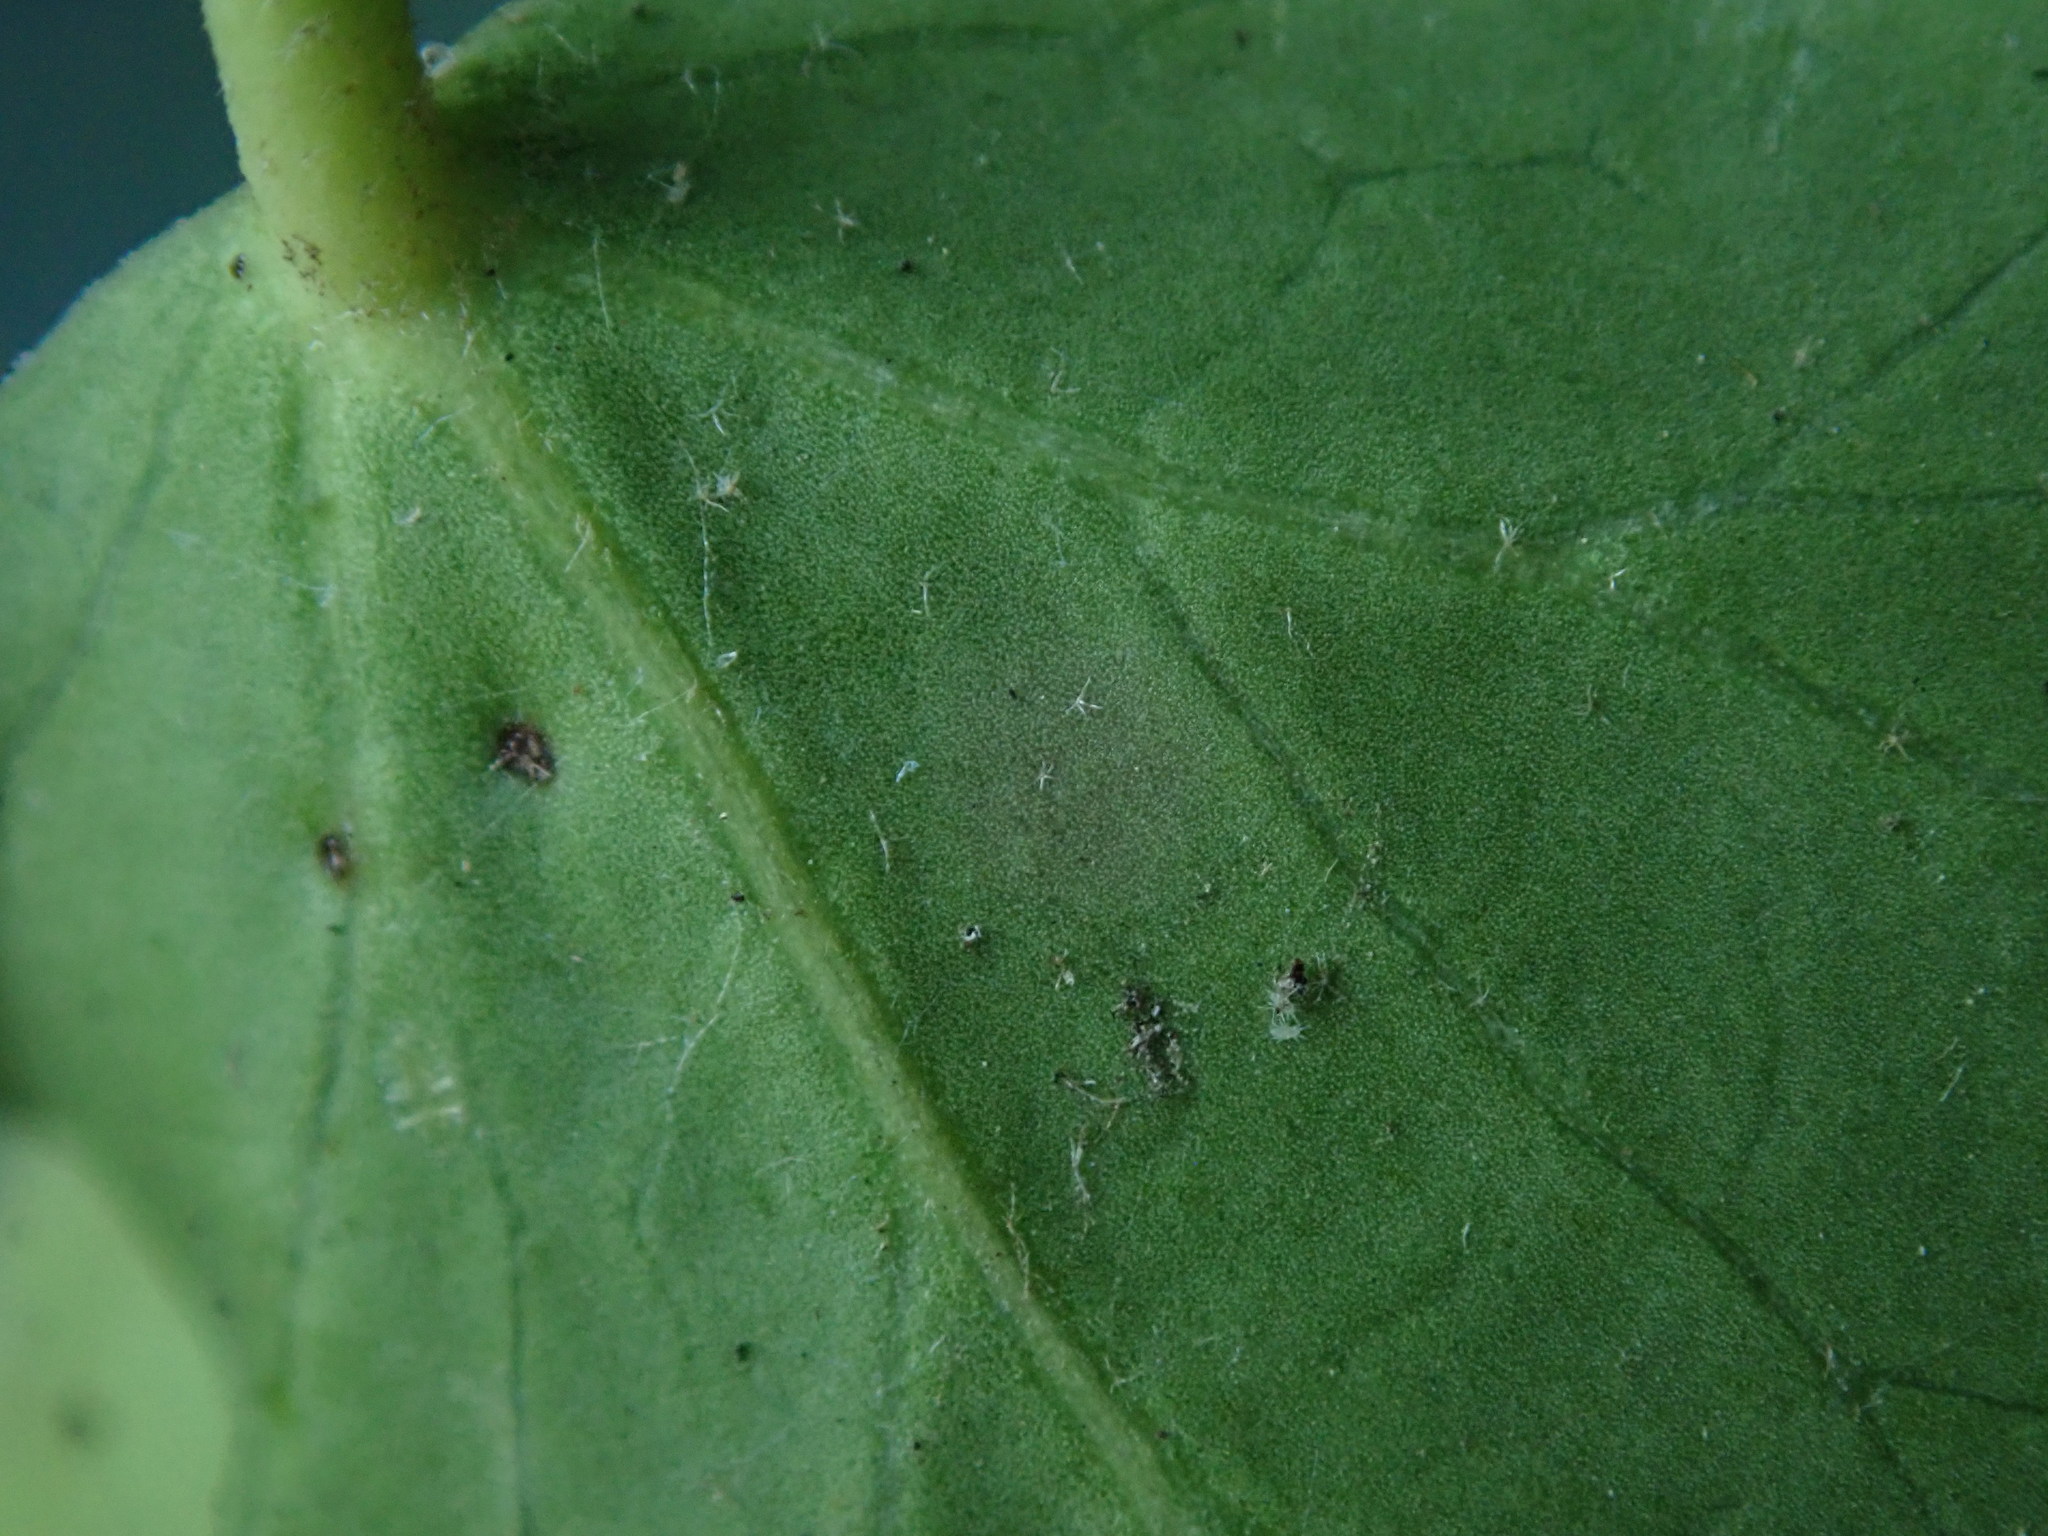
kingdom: Plantae
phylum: Tracheophyta
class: Magnoliopsida
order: Apiales
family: Araliaceae
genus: Hedera
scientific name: Hedera helix
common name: Ivy
